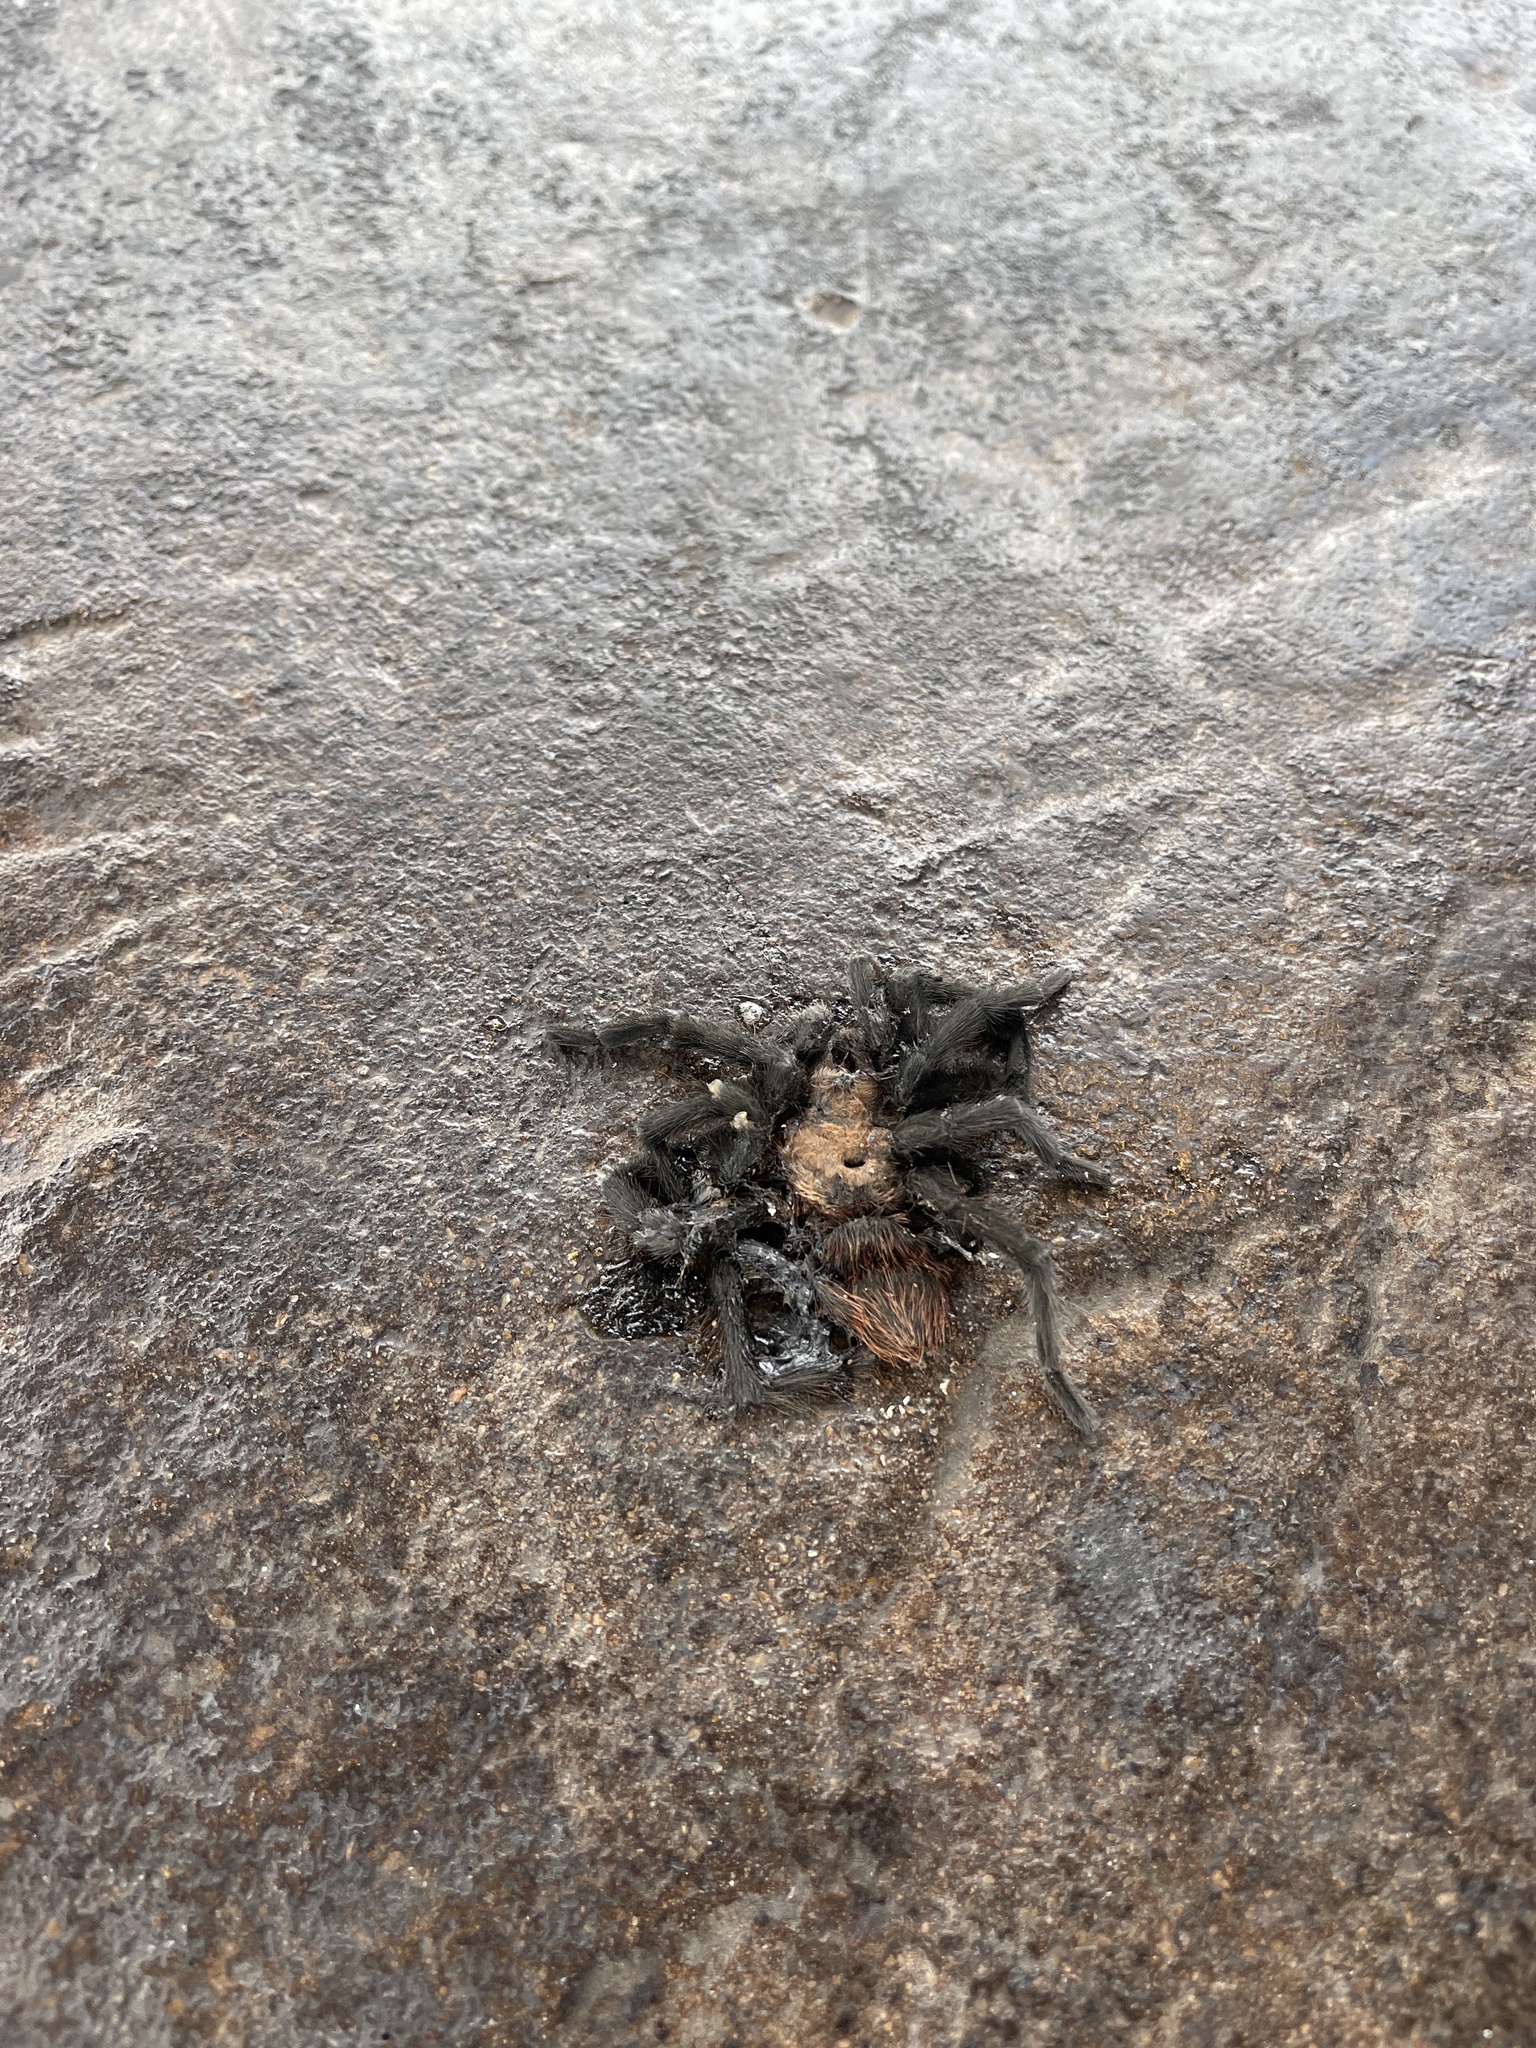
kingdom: Animalia
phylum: Arthropoda
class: Arachnida
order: Araneae
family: Theraphosidae
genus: Aphonopelma
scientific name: Aphonopelma anax
